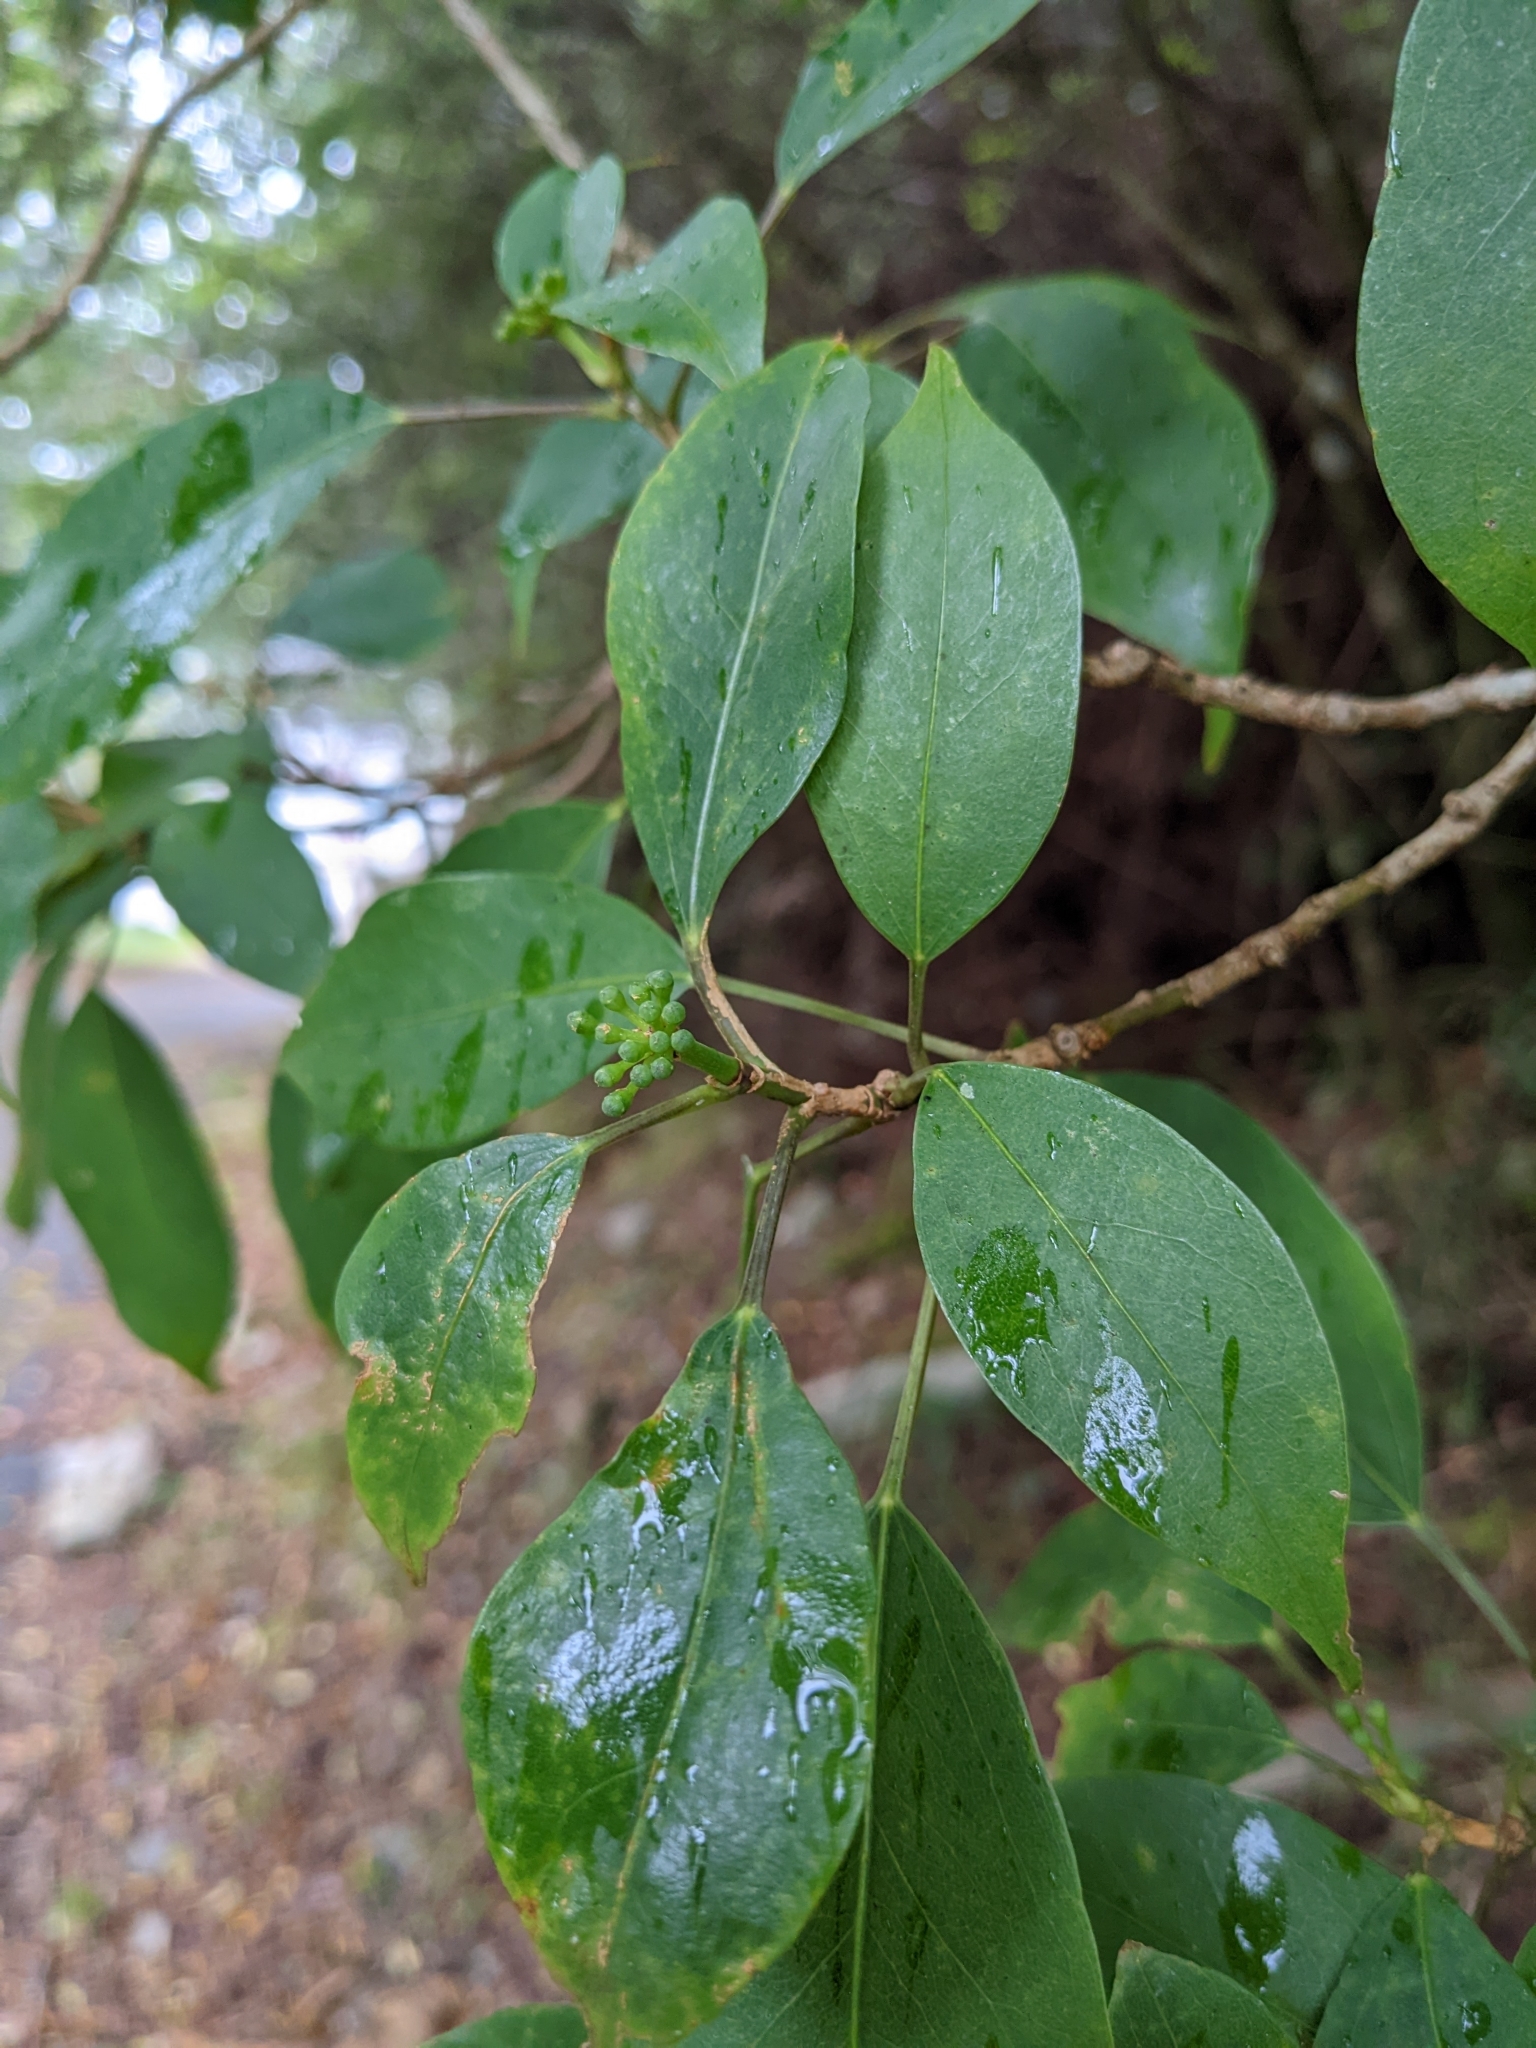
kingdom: Plantae
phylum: Tracheophyta
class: Magnoliopsida
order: Apiales
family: Araliaceae
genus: Dendropanax
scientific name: Dendropanax dentiger
